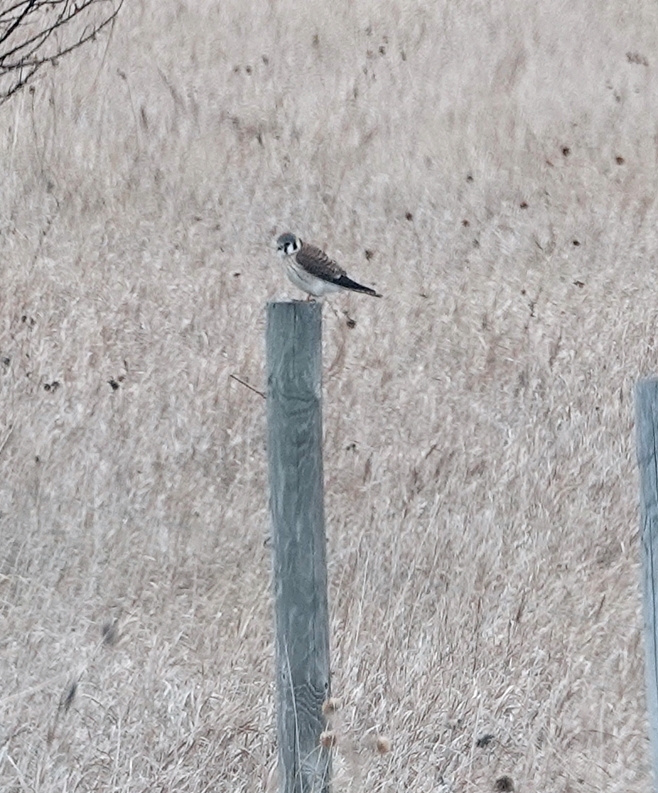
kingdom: Animalia
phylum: Chordata
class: Aves
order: Falconiformes
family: Falconidae
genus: Falco
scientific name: Falco sparverius
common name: American kestrel
